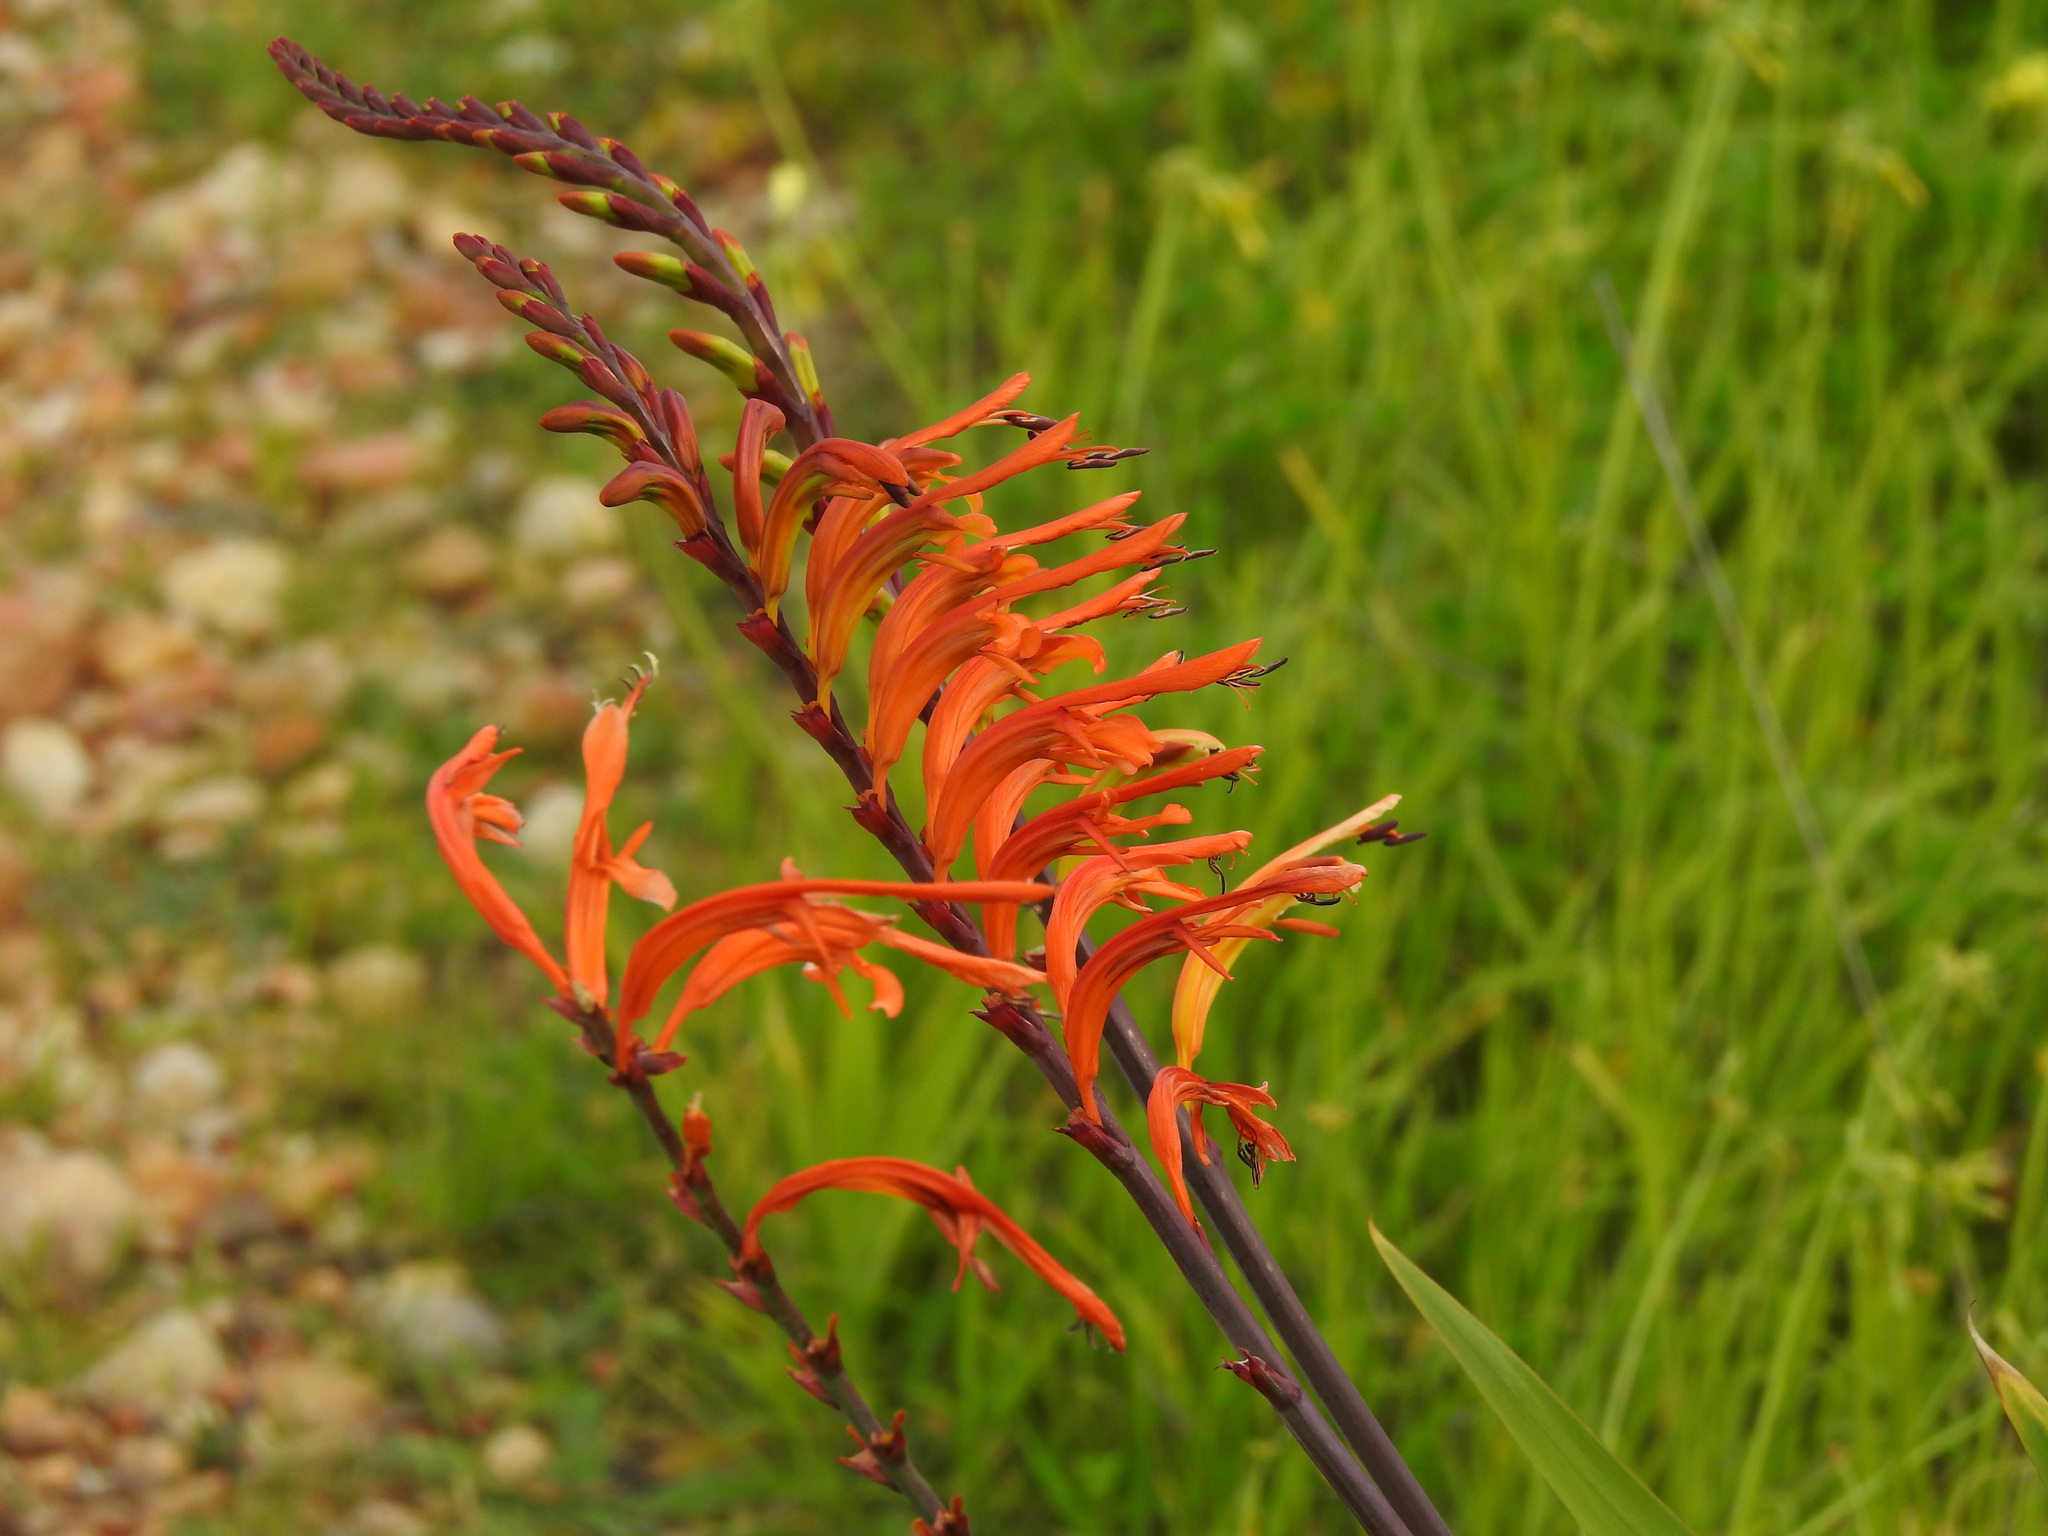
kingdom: Plantae
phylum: Tracheophyta
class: Liliopsida
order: Asparagales
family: Iridaceae
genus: Chasmanthe
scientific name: Chasmanthe floribunda
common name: African cornflag
